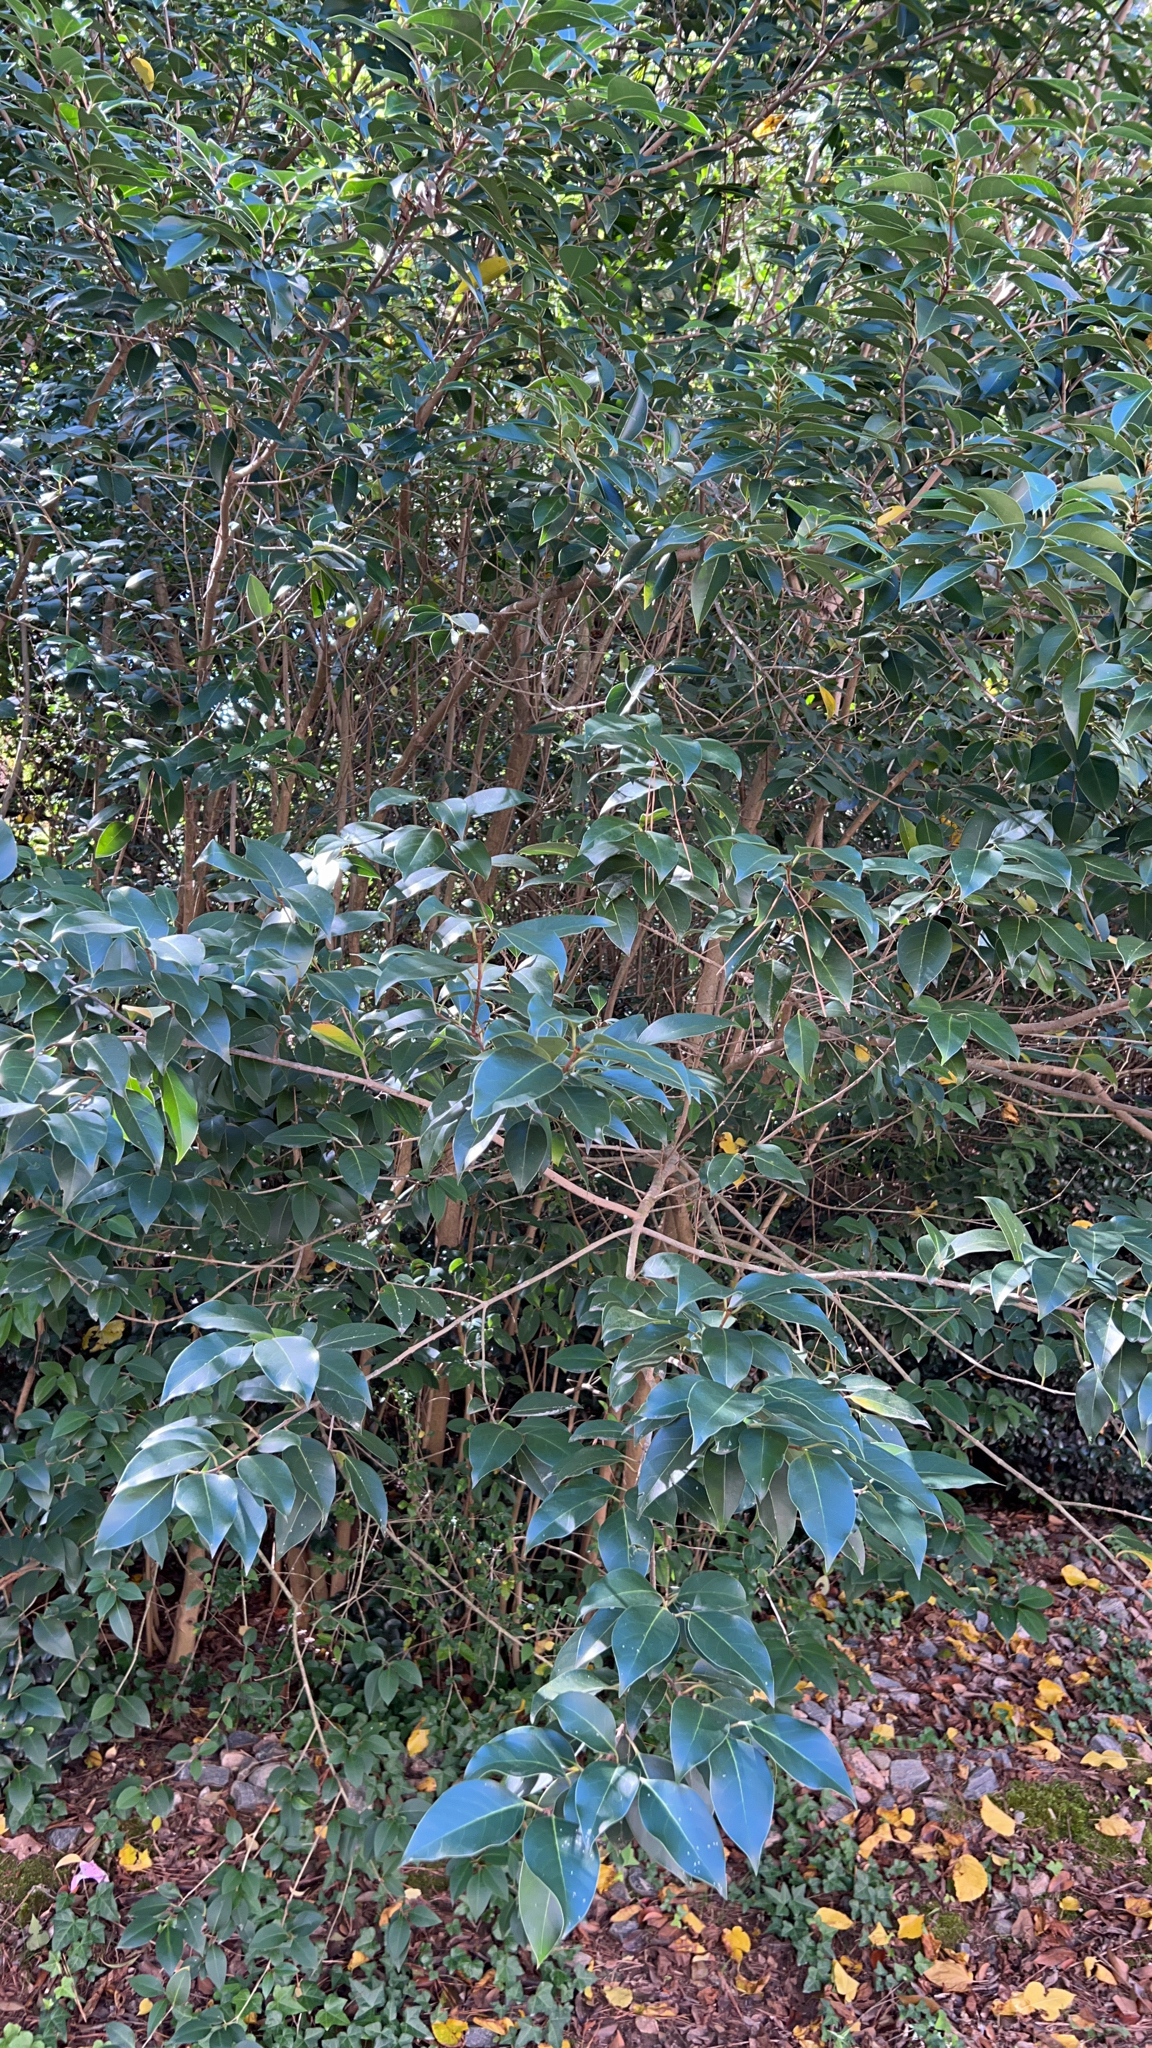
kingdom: Plantae
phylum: Tracheophyta
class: Magnoliopsida
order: Lamiales
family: Oleaceae
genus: Ligustrum
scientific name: Ligustrum lucidum
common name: Glossy privet
